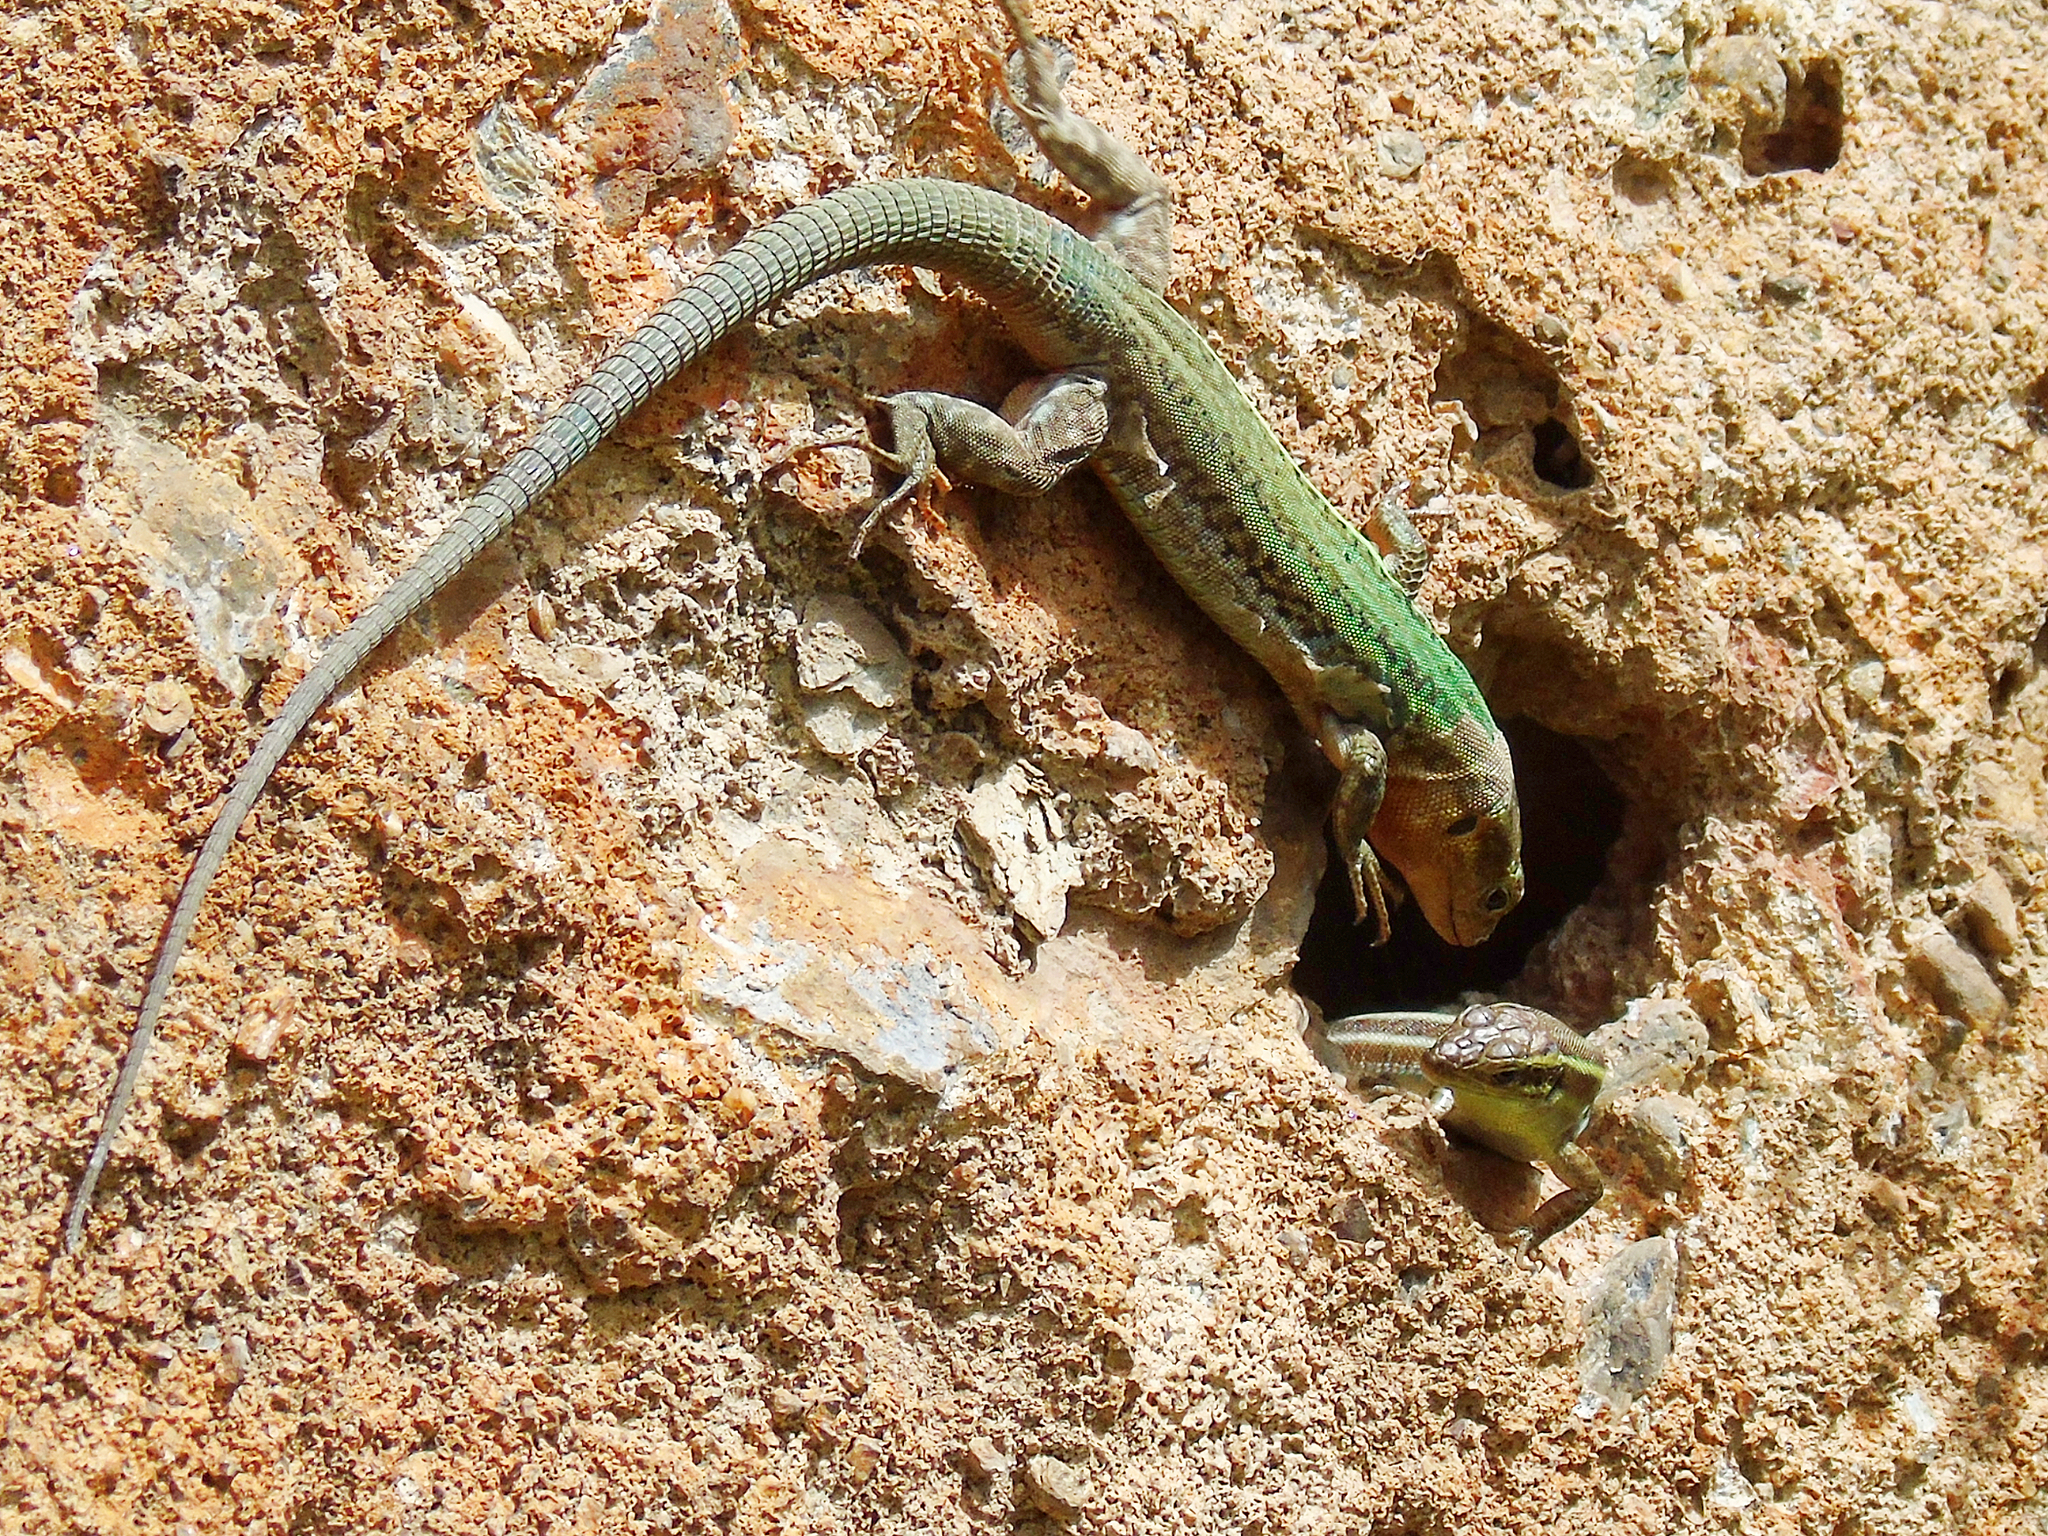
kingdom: Animalia
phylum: Chordata
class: Squamata
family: Lacertidae
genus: Podarcis
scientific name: Podarcis peloponnesiacus
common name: Peloponnese wall lizard
